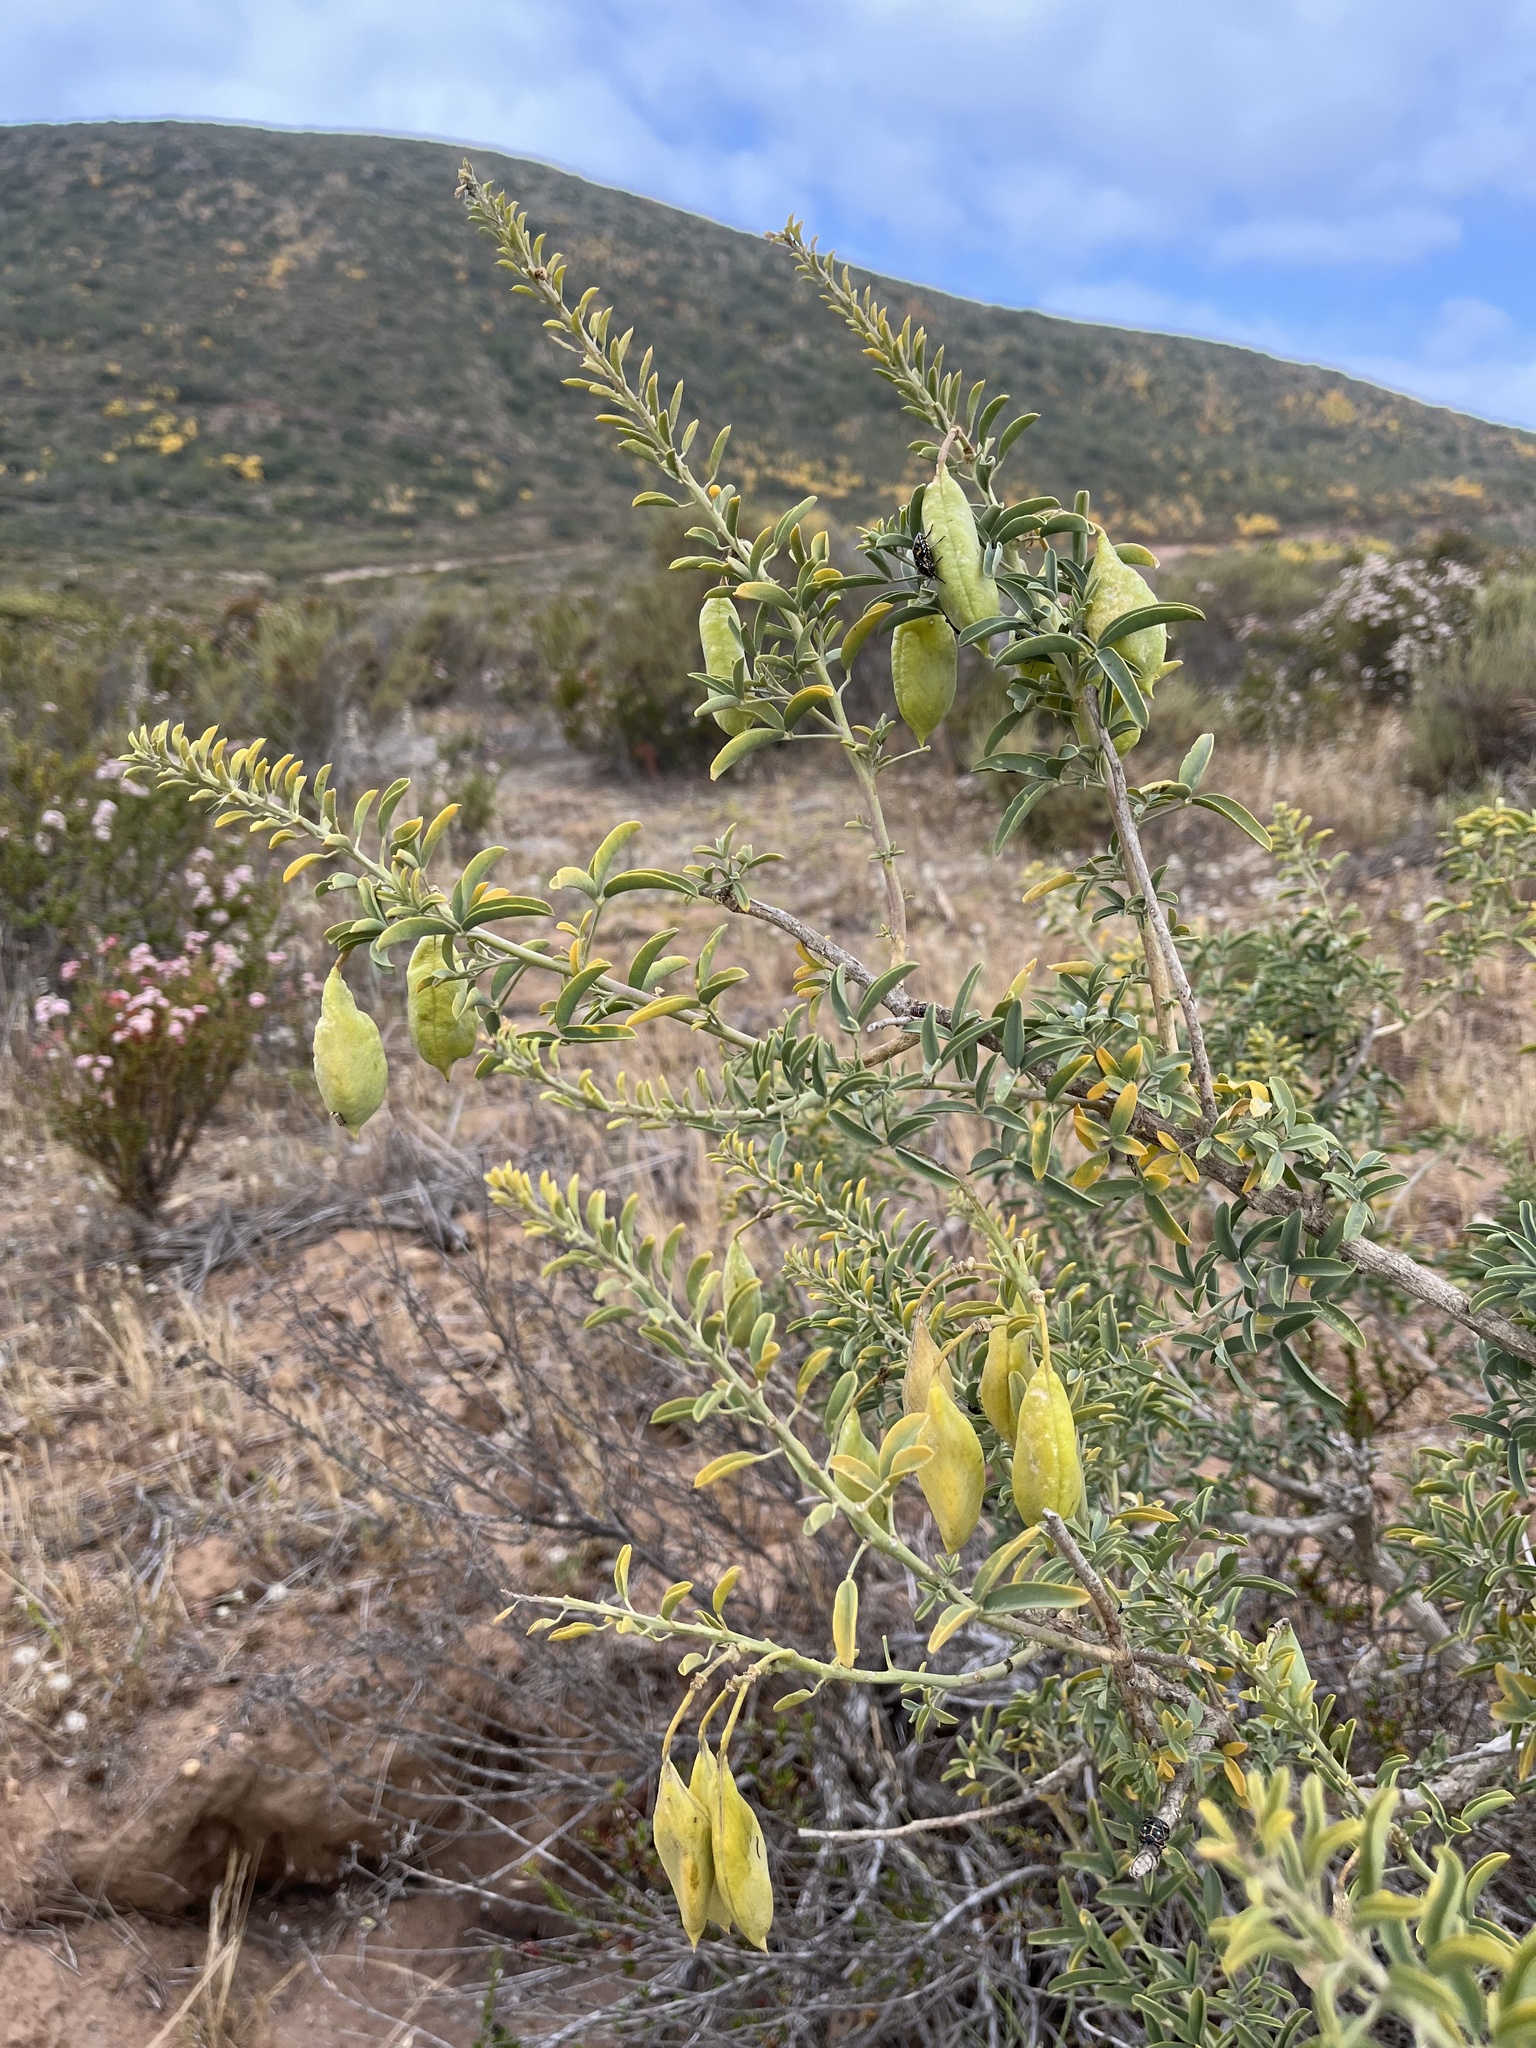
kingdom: Plantae
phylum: Tracheophyta
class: Magnoliopsida
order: Brassicales
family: Cleomaceae
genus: Cleomella
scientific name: Cleomella arborea
